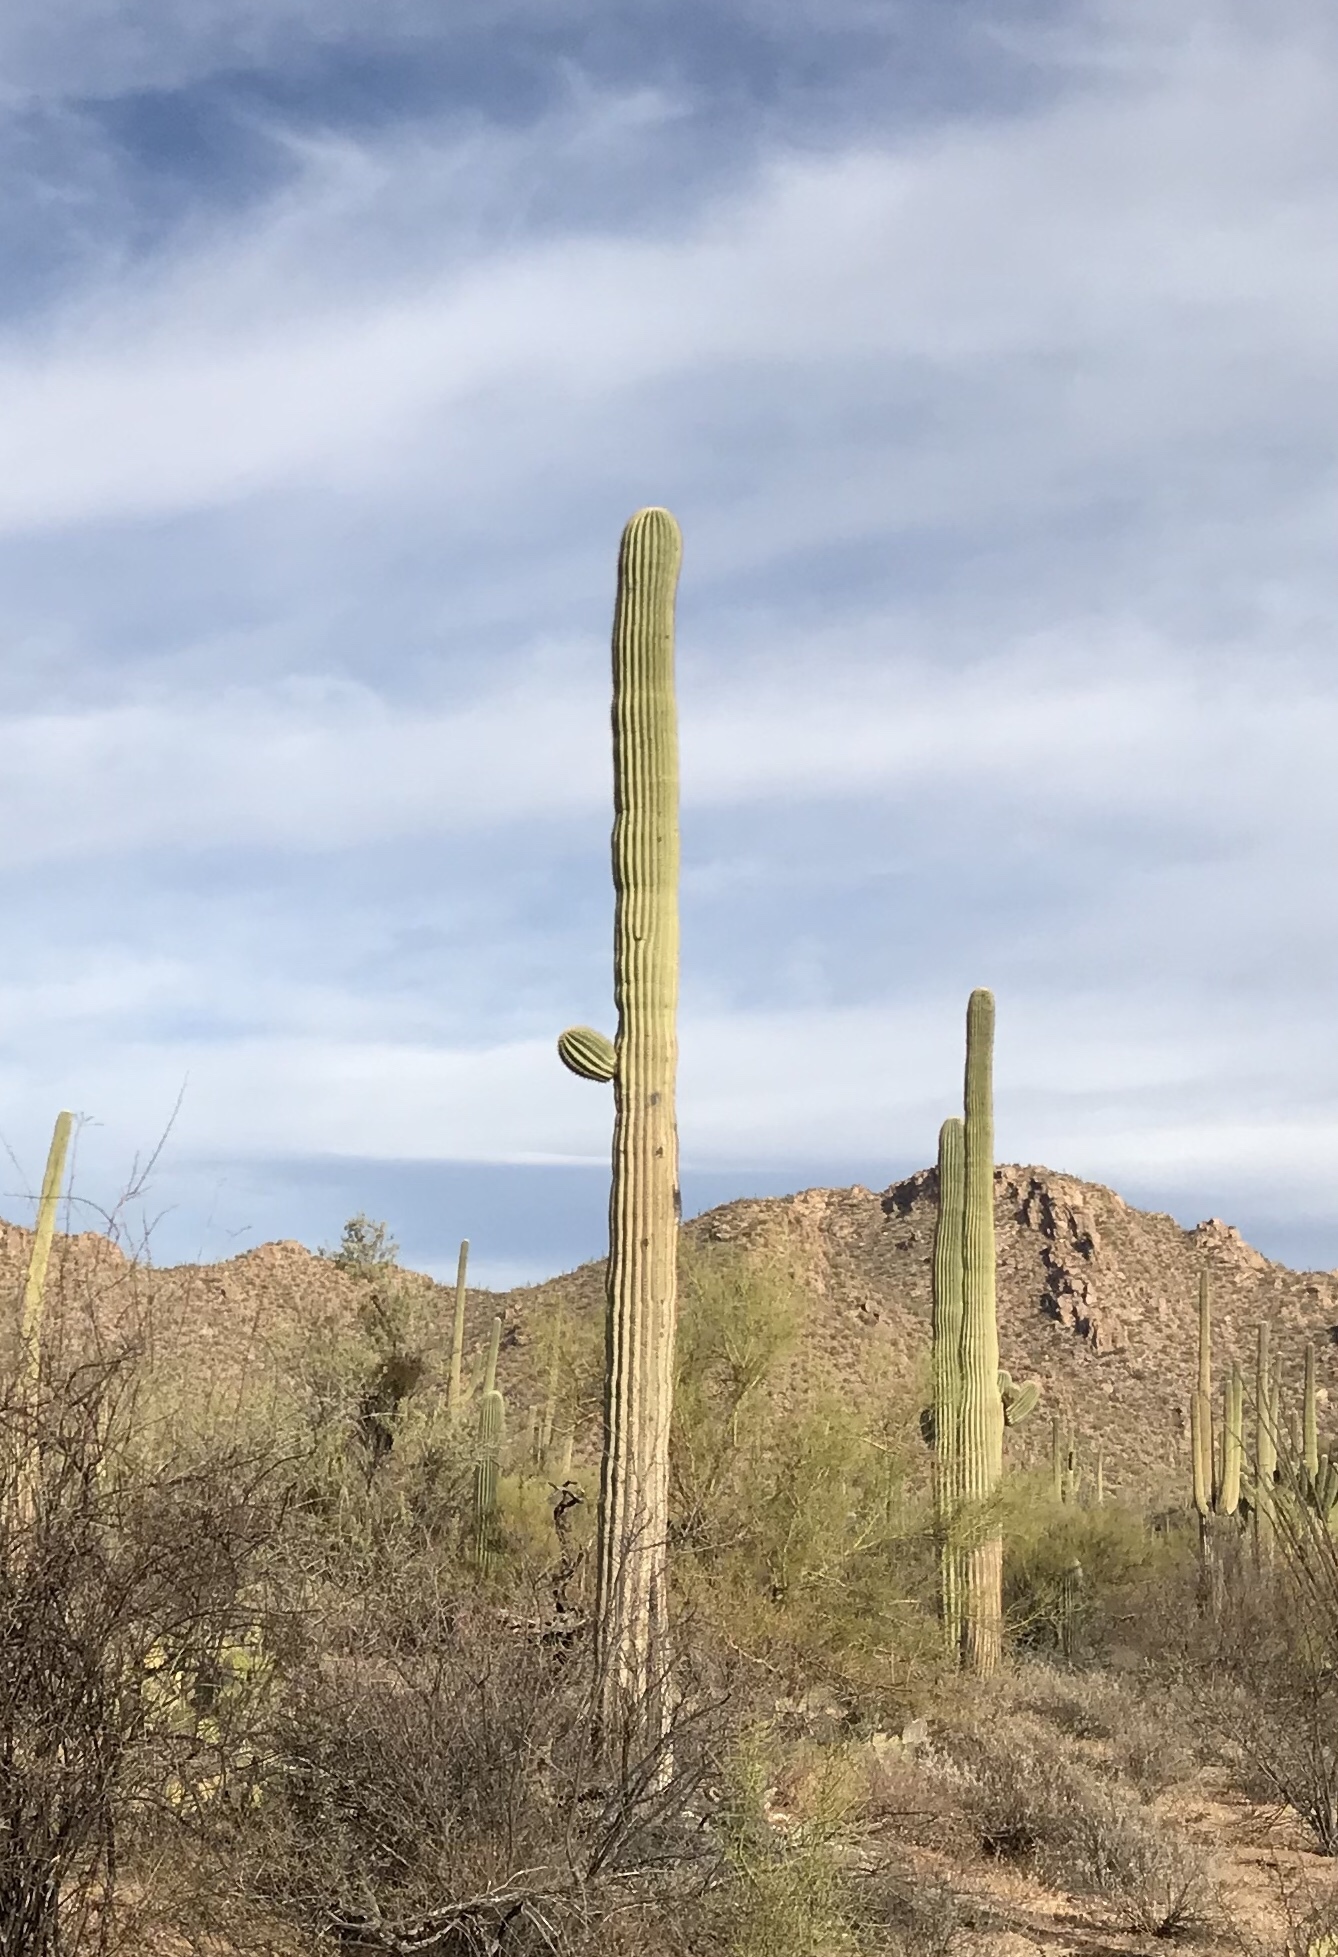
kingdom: Plantae
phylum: Tracheophyta
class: Magnoliopsida
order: Caryophyllales
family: Cactaceae
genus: Carnegiea
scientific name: Carnegiea gigantea
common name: Saguaro
